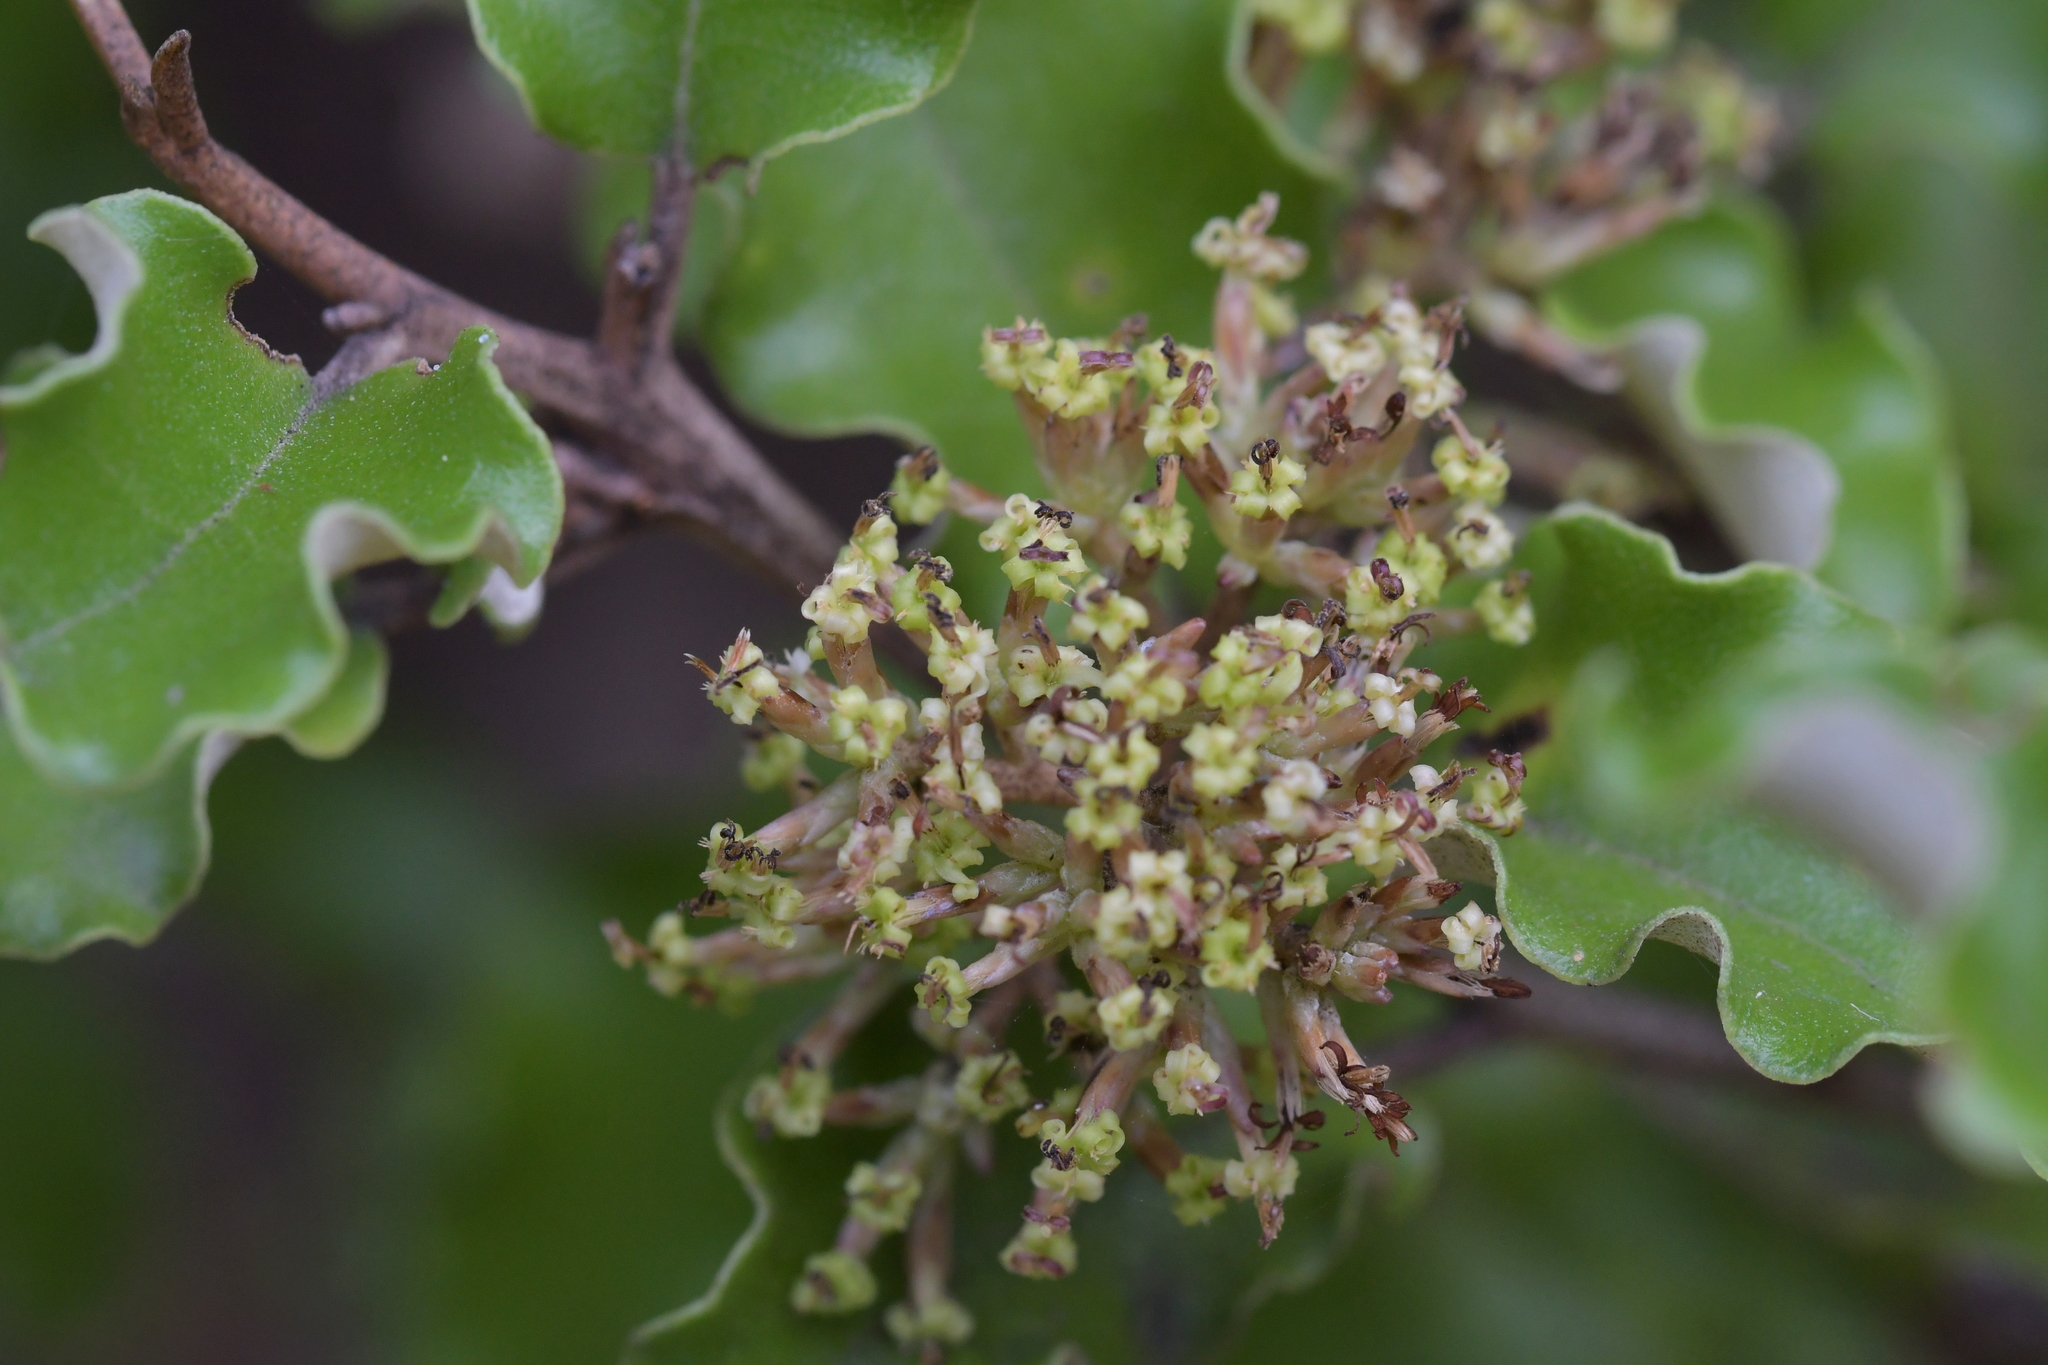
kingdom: Plantae
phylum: Tracheophyta
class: Magnoliopsida
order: Asterales
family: Asteraceae
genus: Olearia
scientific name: Olearia paniculata
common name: Akiraho
